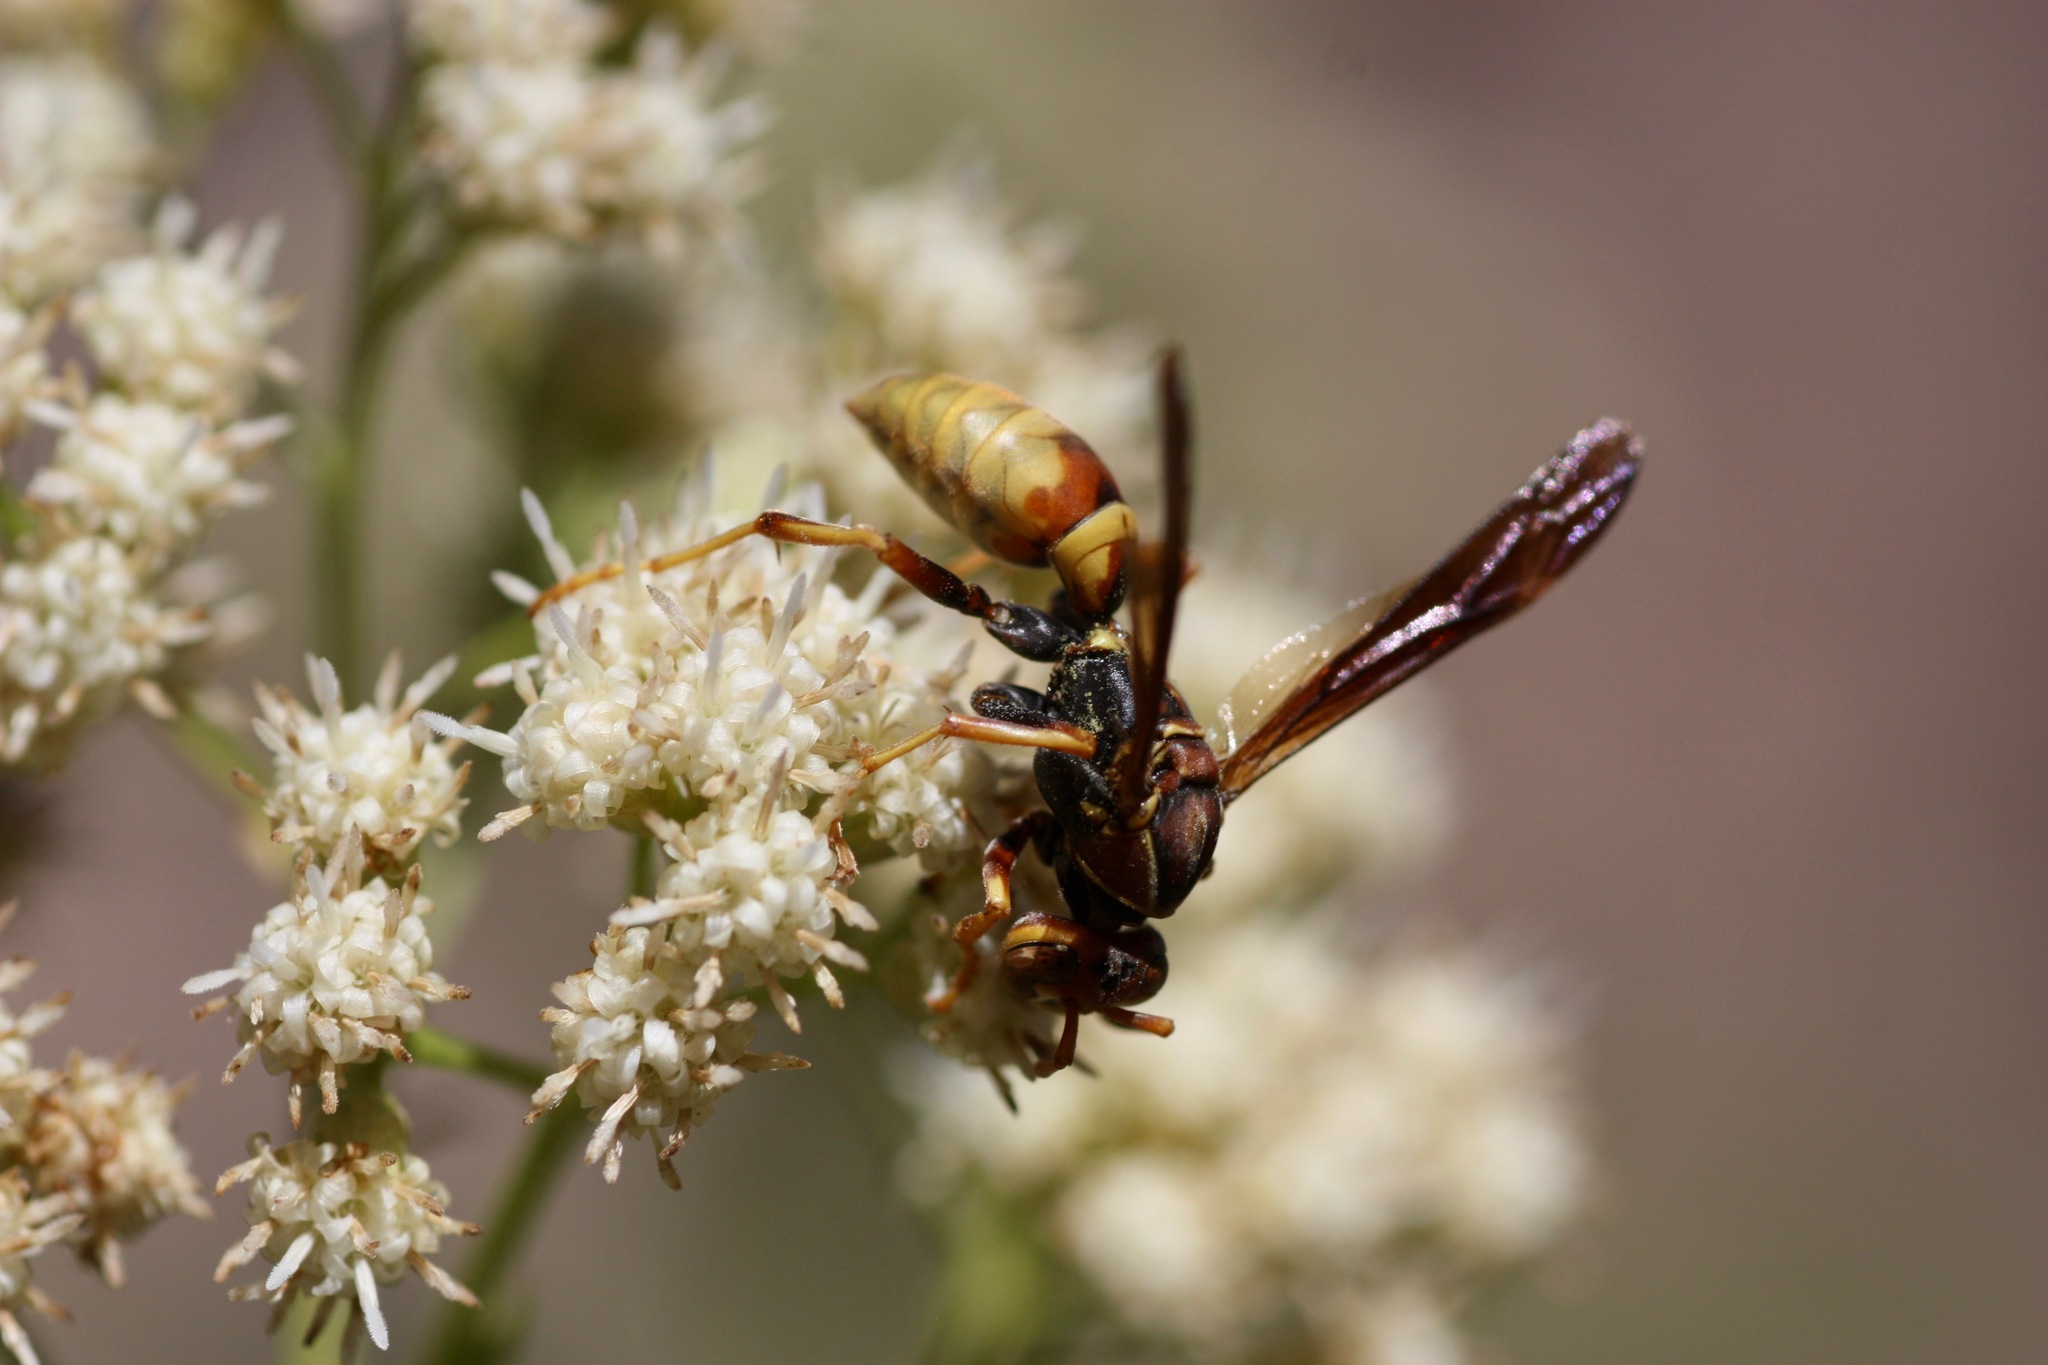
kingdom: Animalia
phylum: Arthropoda
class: Insecta
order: Hymenoptera
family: Eumenidae
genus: Polistes
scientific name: Polistes dorsalis
